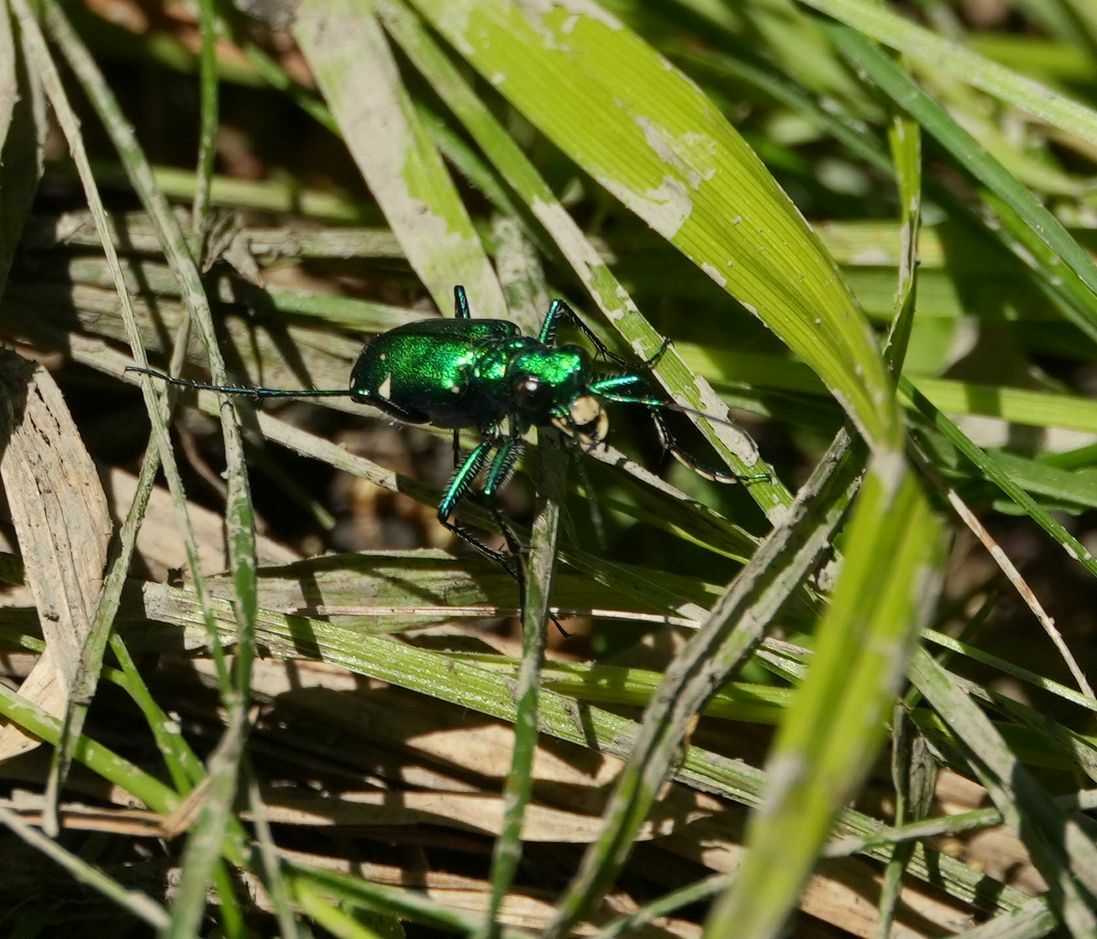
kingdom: Animalia
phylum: Arthropoda
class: Insecta
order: Coleoptera
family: Carabidae
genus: Cicindela
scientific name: Cicindela sexguttata
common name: Six-spotted tiger beetle
